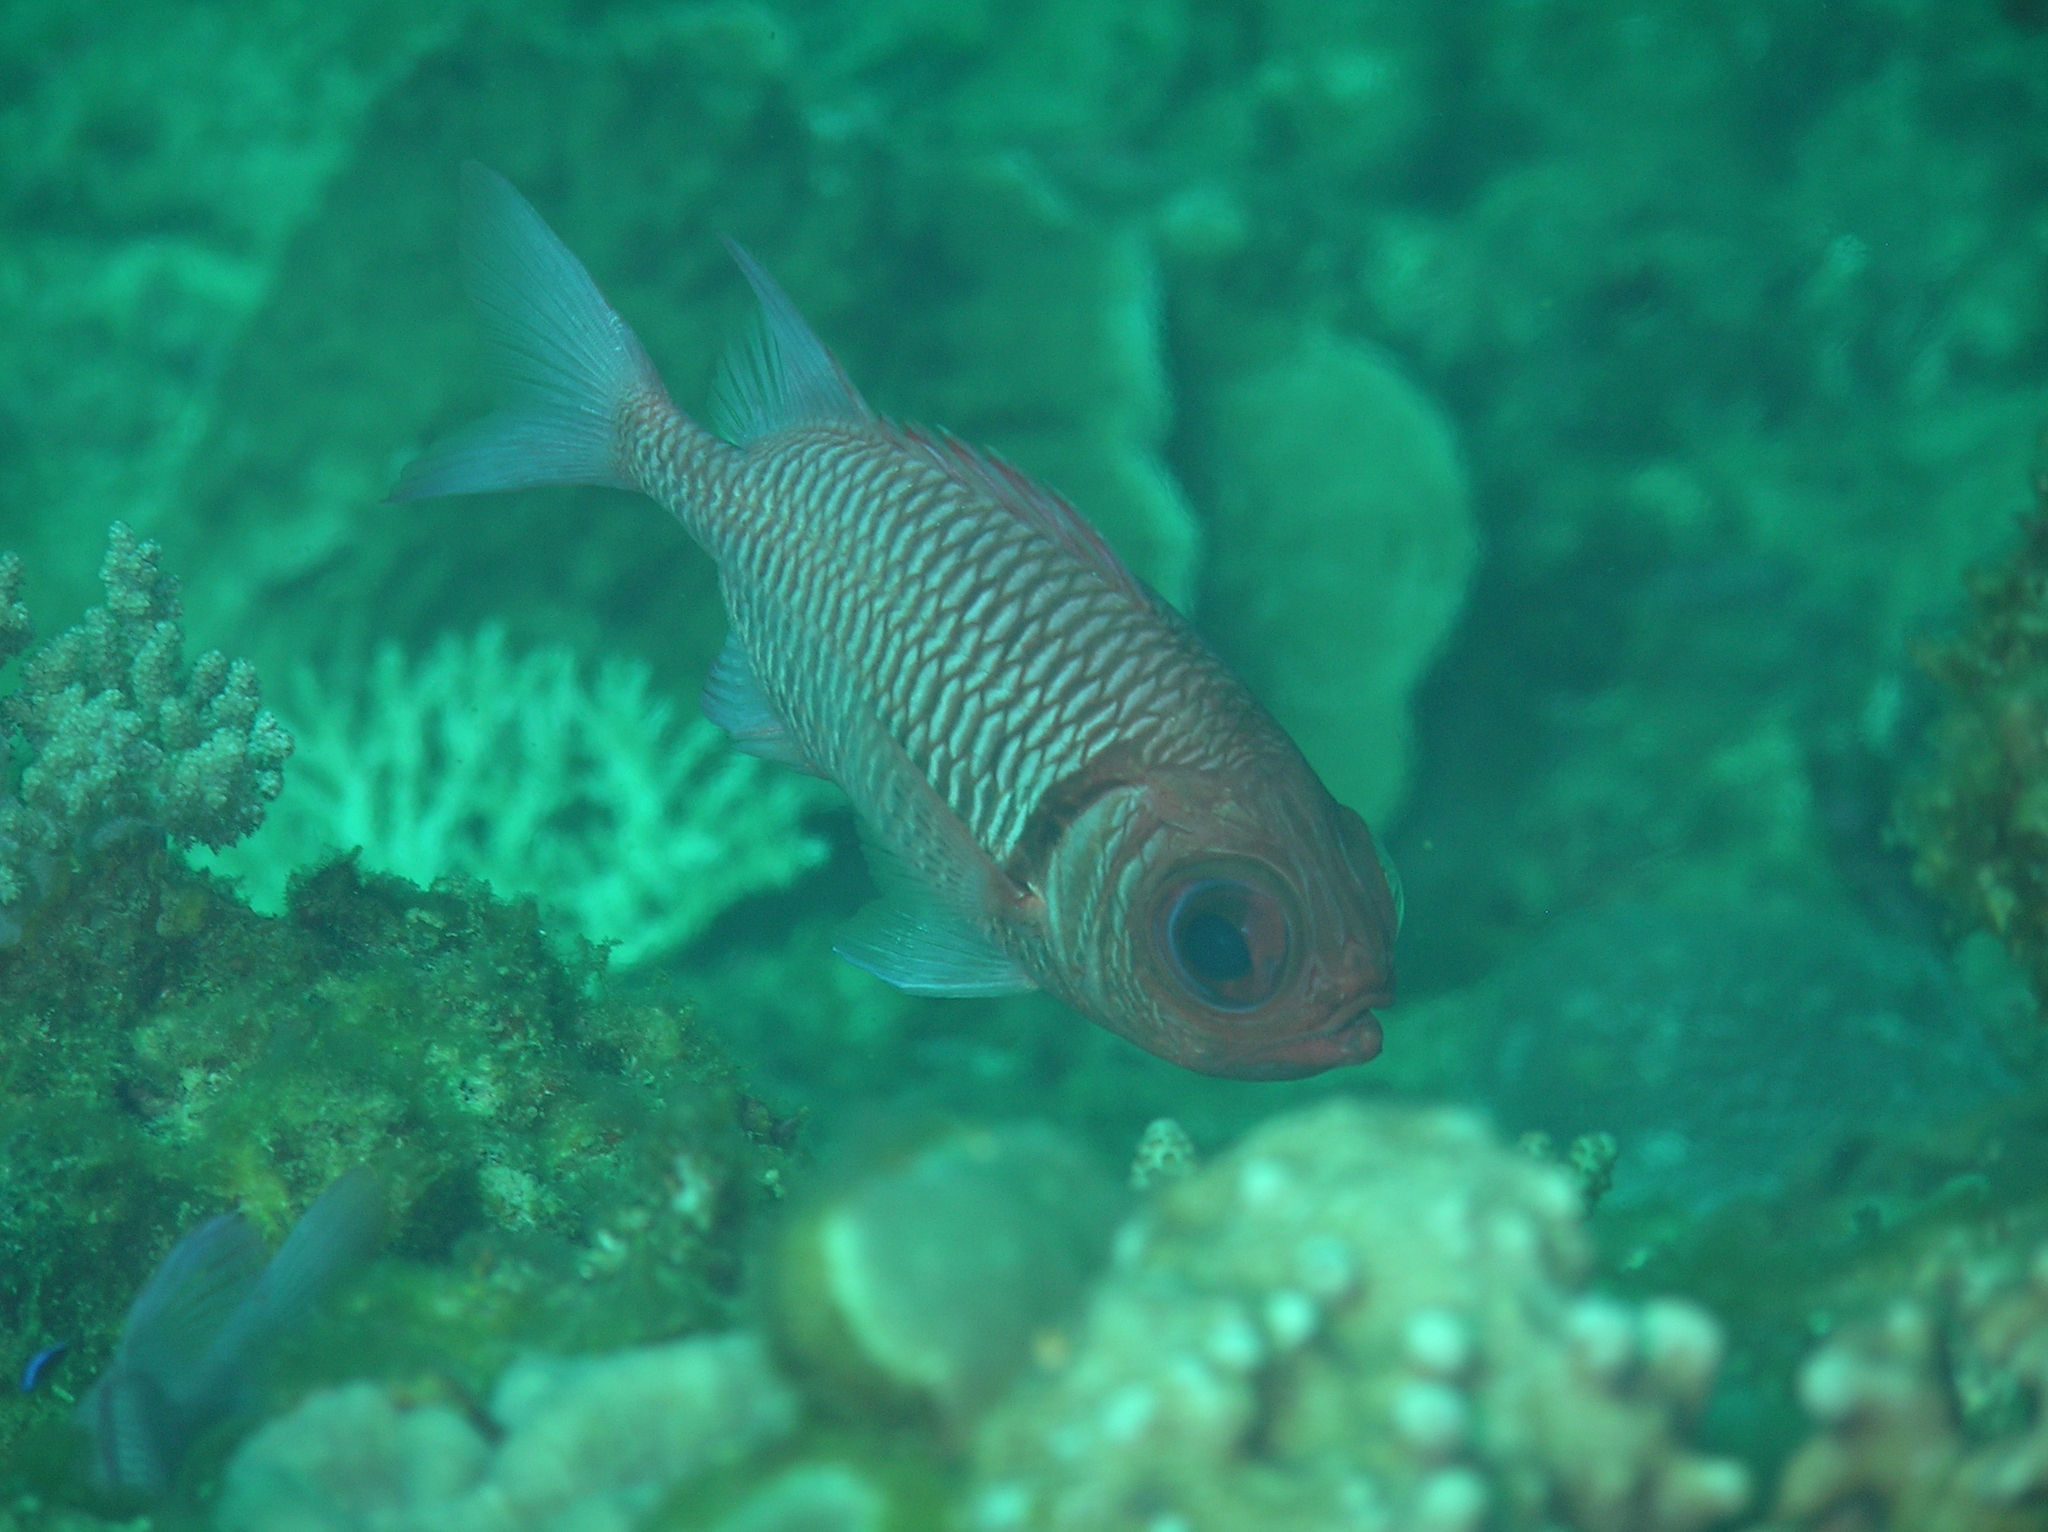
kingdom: Animalia
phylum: Chordata
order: Beryciformes
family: Holocentridae
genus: Myripristis
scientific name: Myripristis hexagona
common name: Blacktip soldierfish
